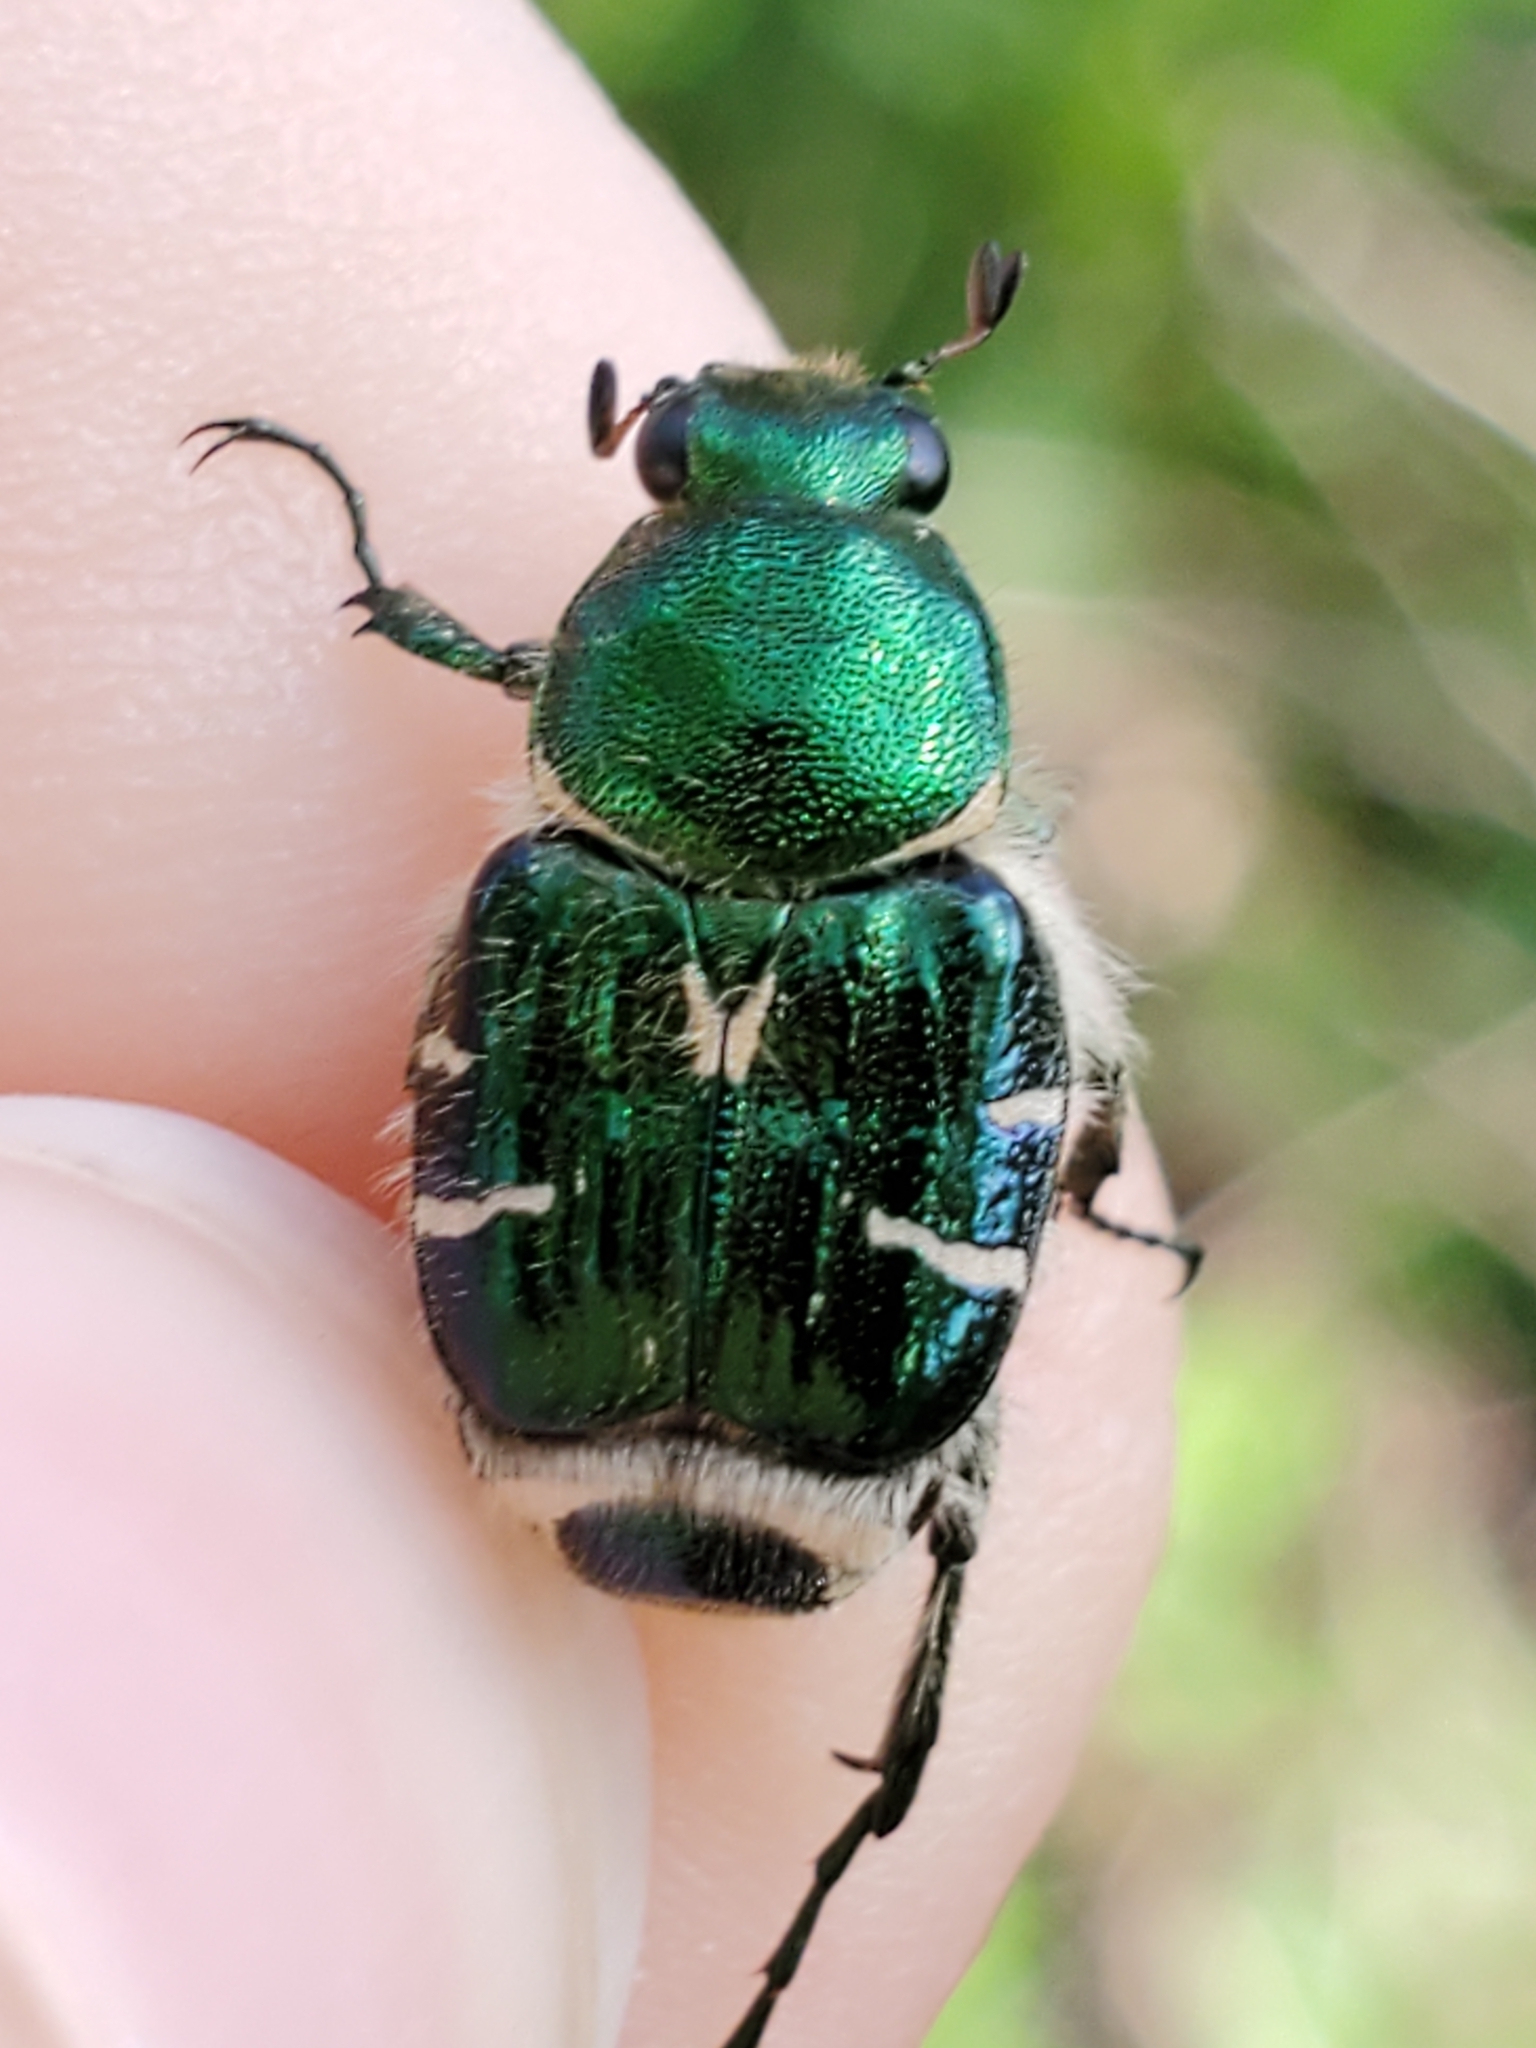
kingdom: Animalia
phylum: Arthropoda
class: Insecta
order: Coleoptera
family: Scarabaeidae
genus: Trichiotinus
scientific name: Trichiotinus lunulatus
